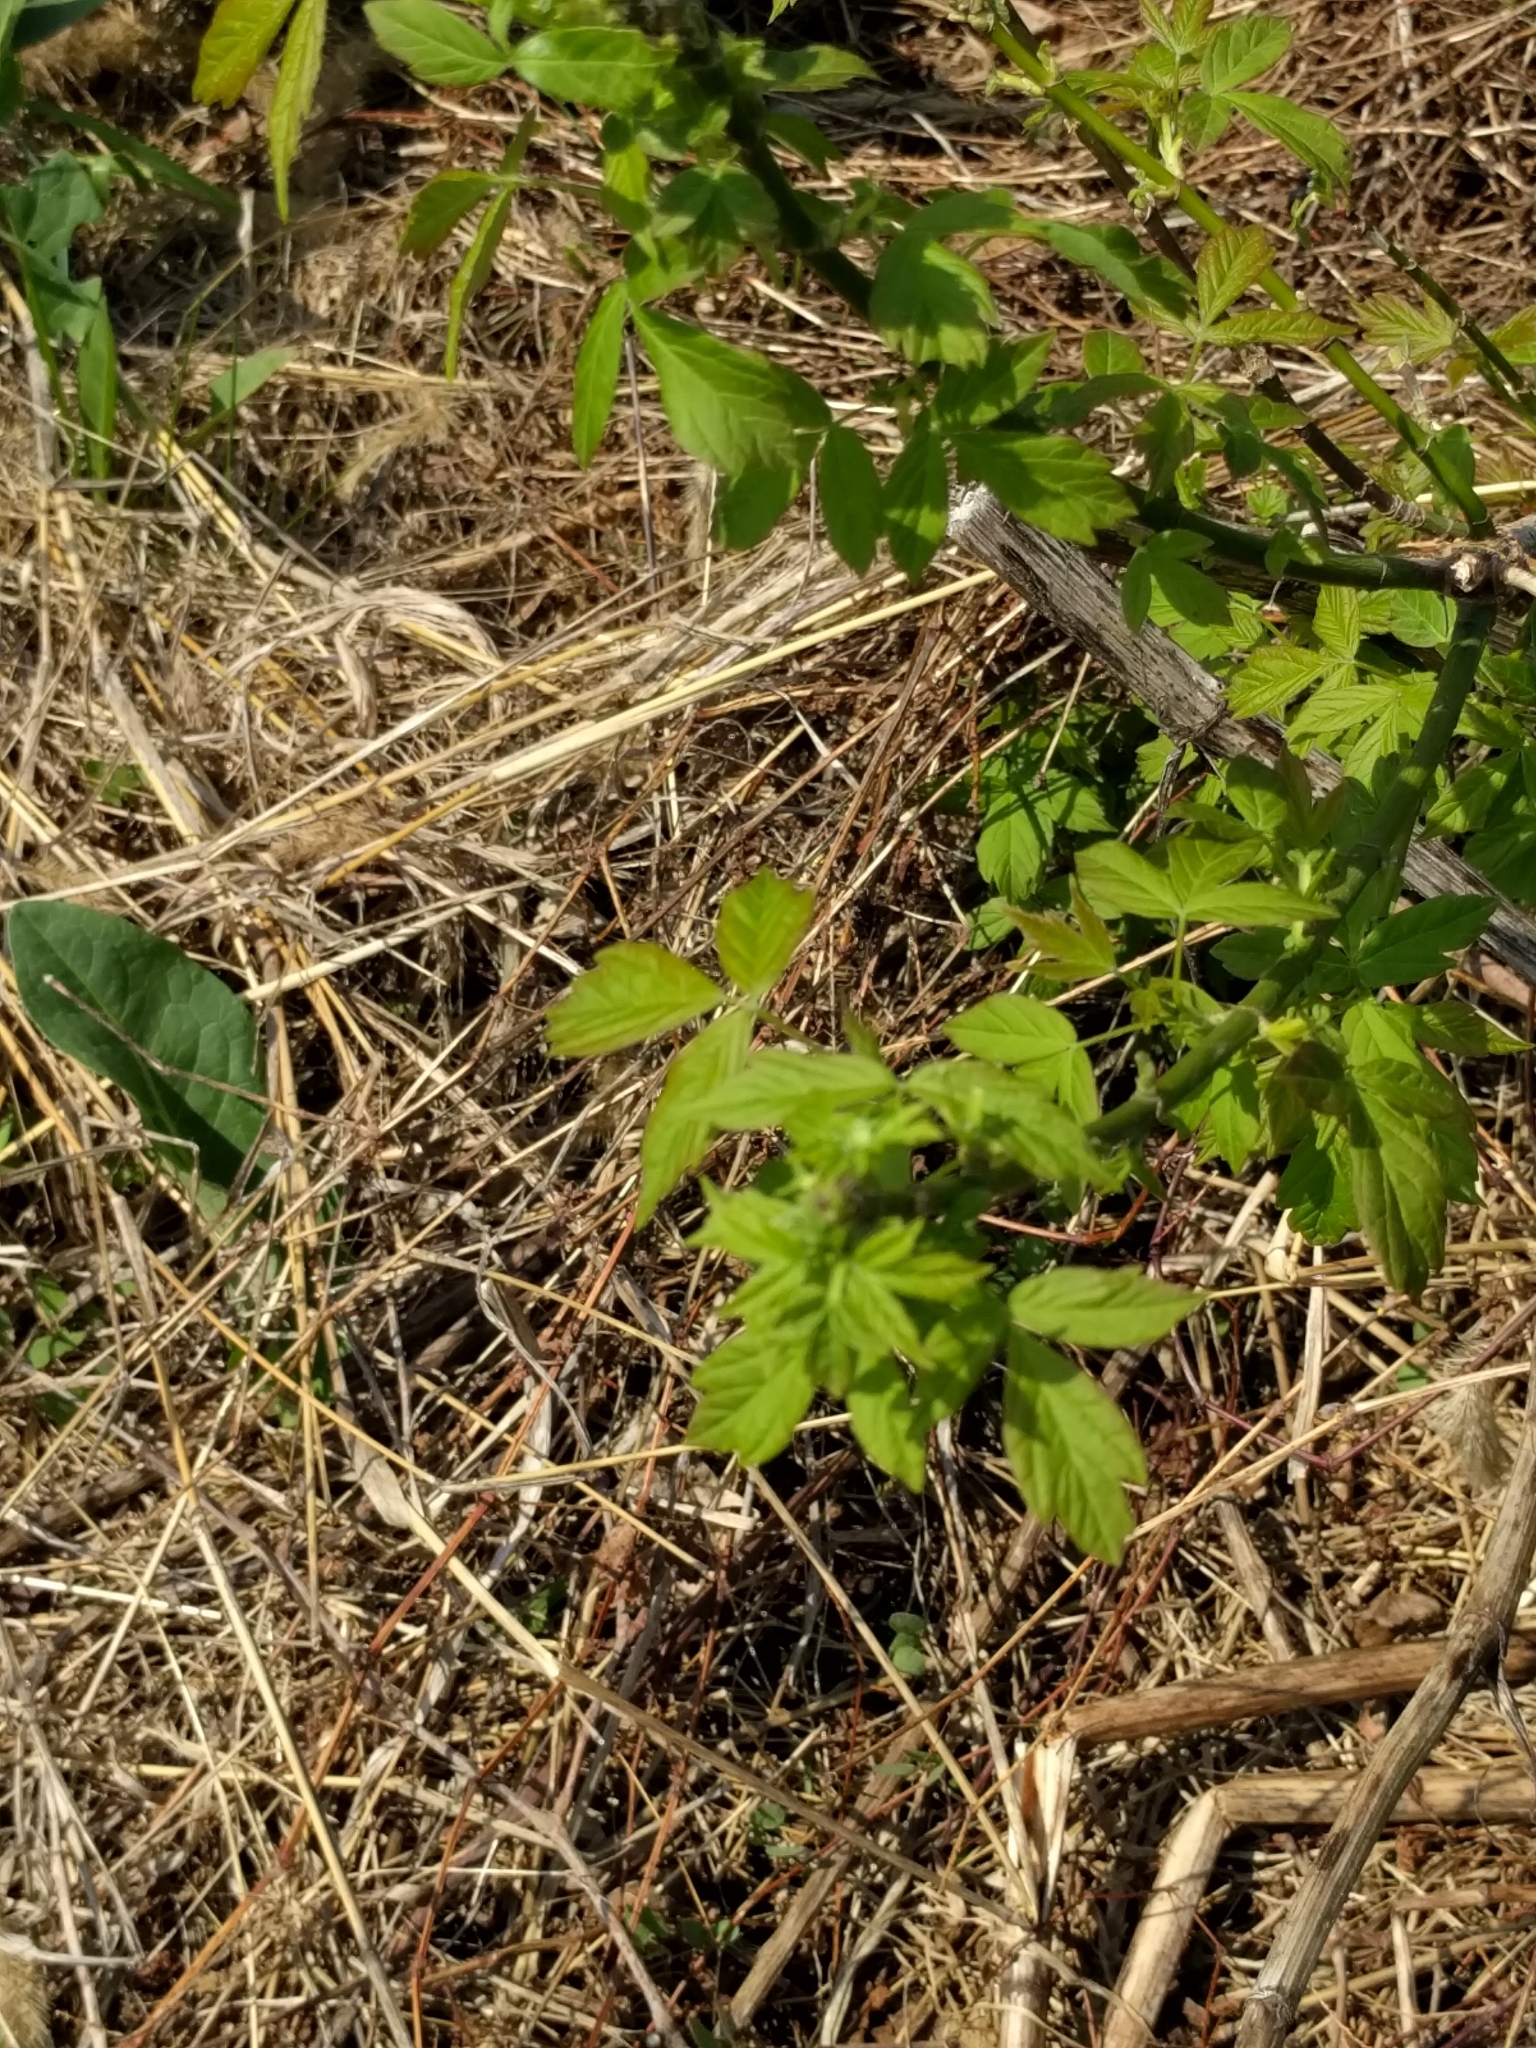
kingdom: Plantae
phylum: Tracheophyta
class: Magnoliopsida
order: Sapindales
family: Sapindaceae
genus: Acer
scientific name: Acer negundo
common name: Ashleaf maple
